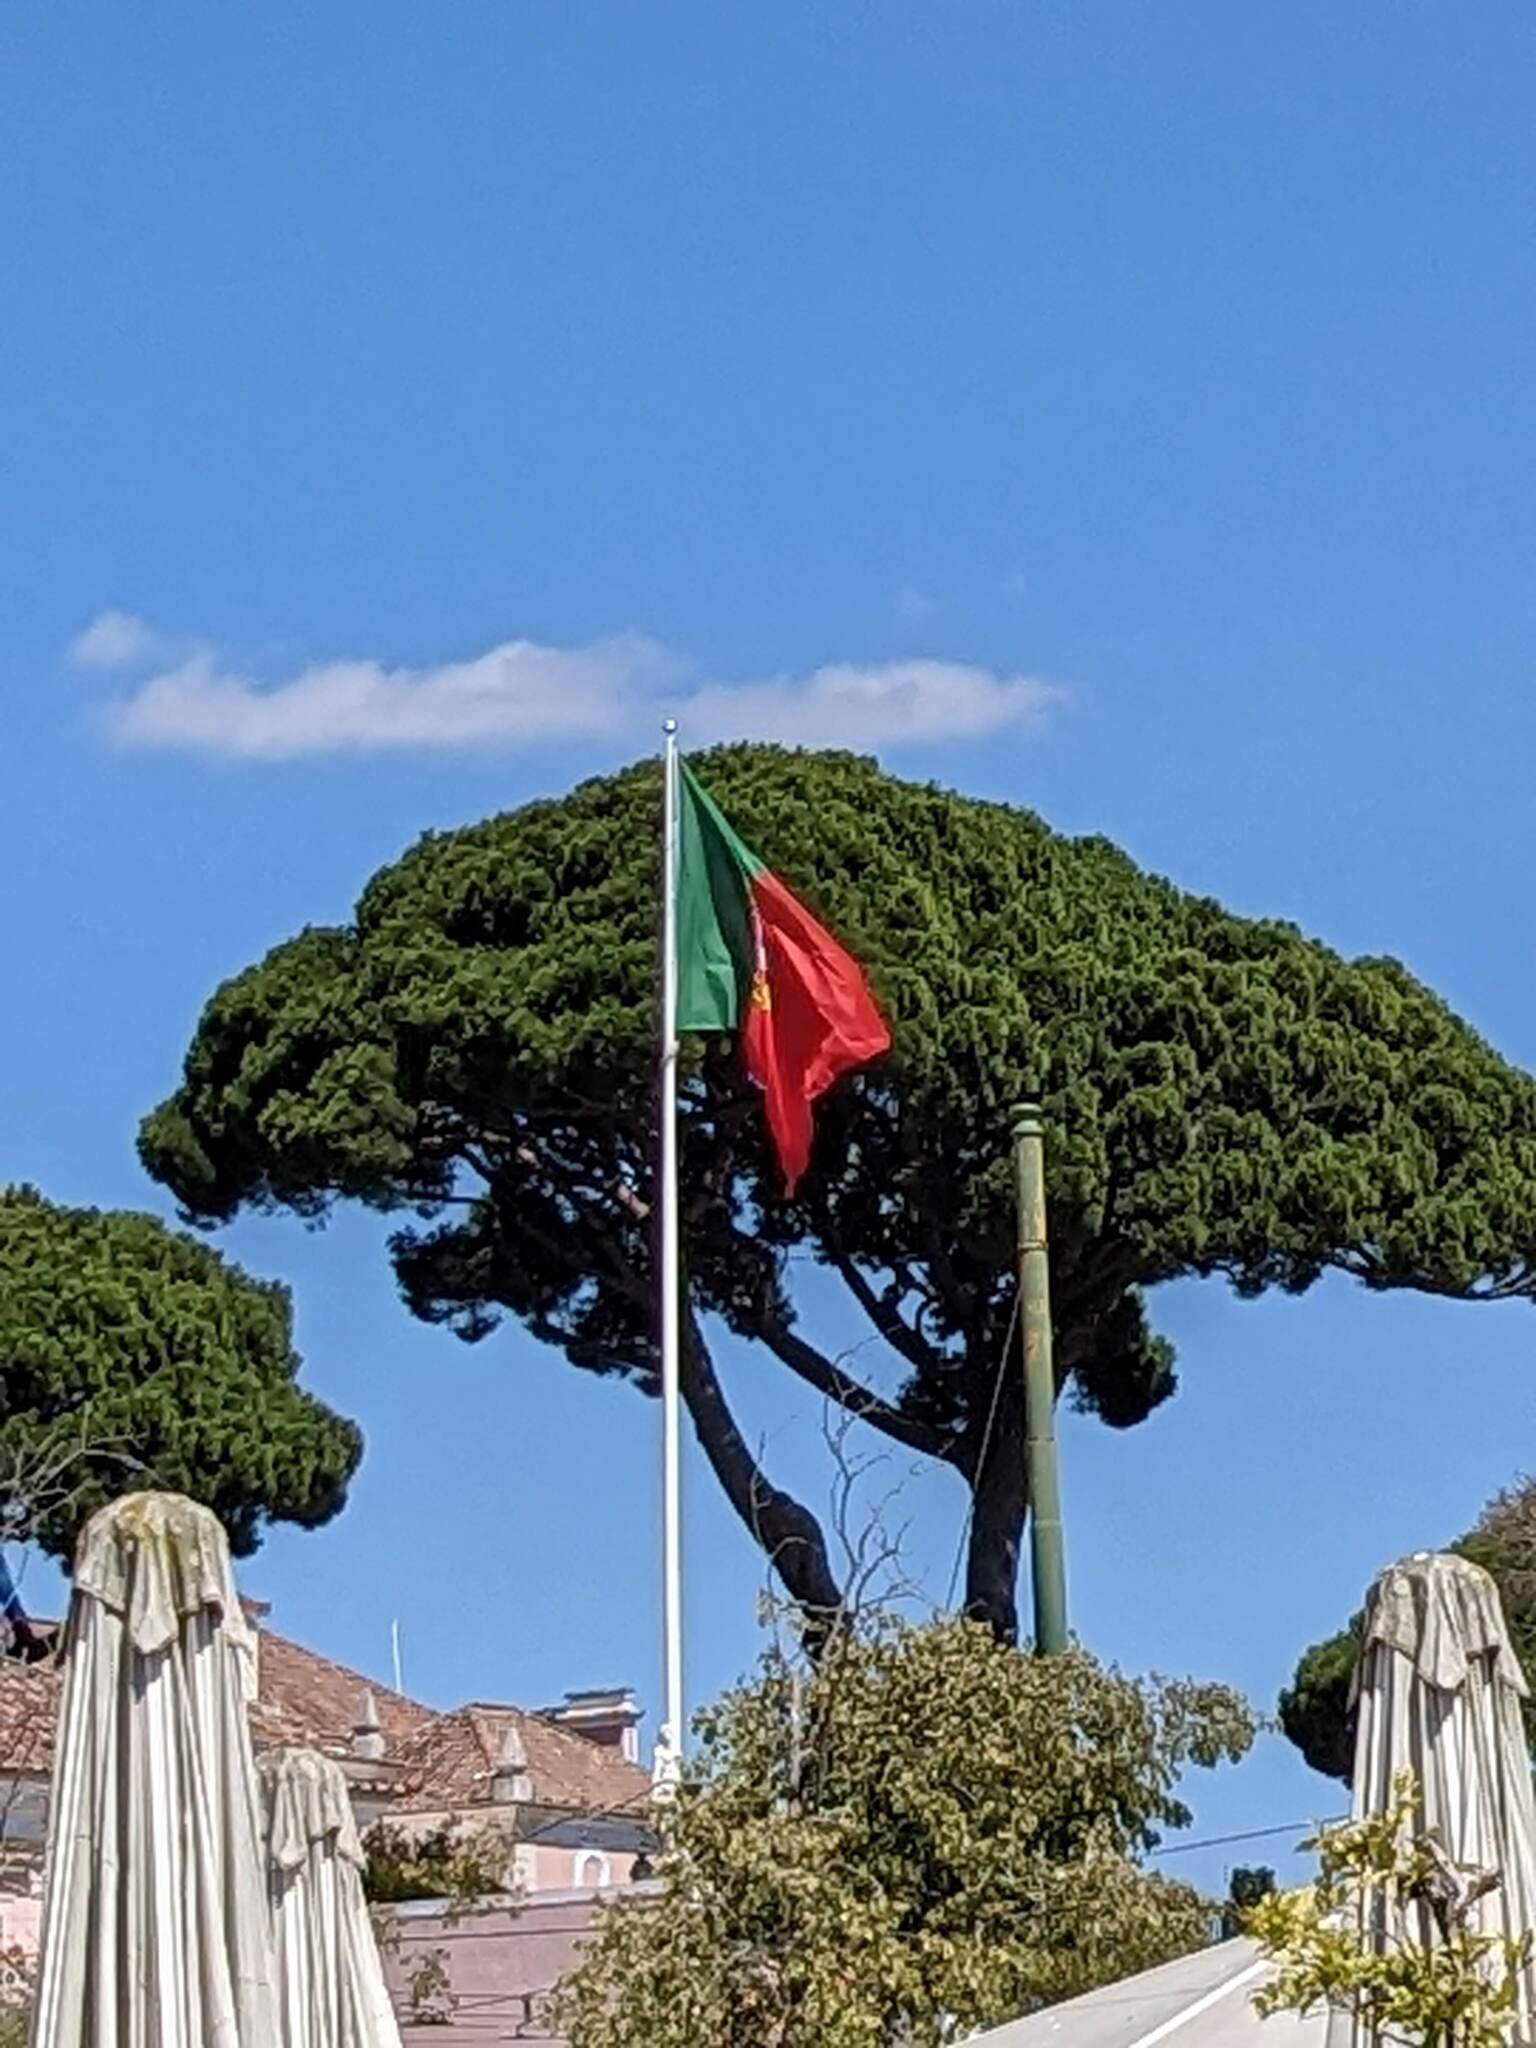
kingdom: Plantae
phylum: Tracheophyta
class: Pinopsida
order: Pinales
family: Pinaceae
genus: Pinus
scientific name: Pinus pinea
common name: Italian stone pine
